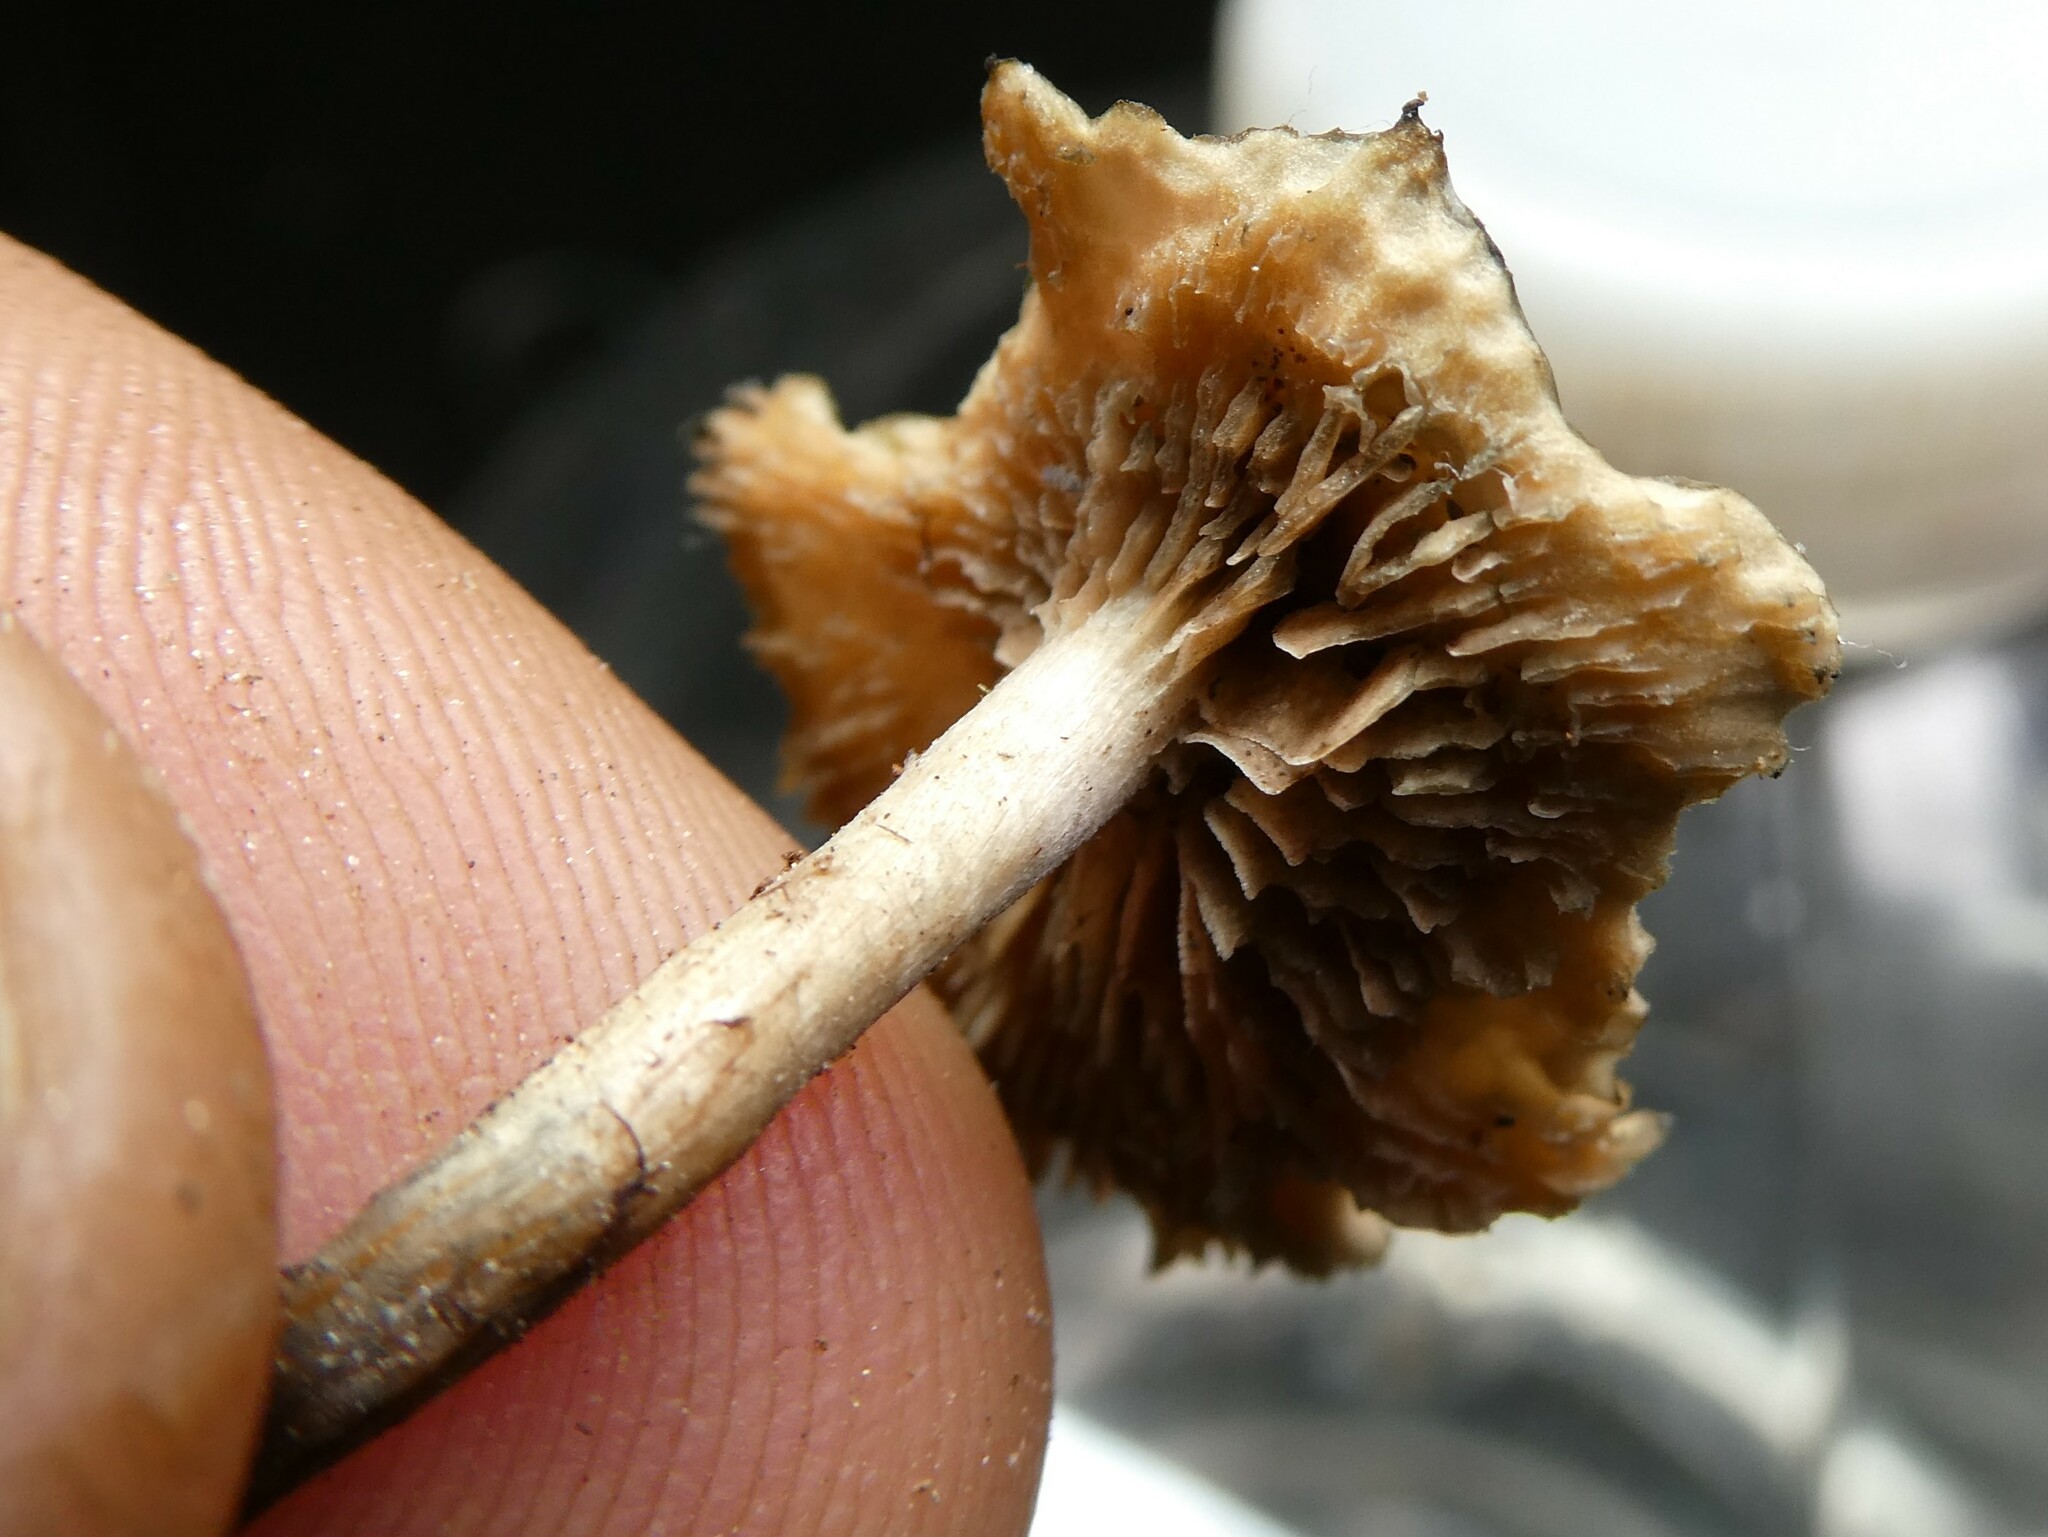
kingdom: Fungi
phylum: Basidiomycota
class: Agaricomycetes
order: Agaricales
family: Hymenogastraceae
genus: Psilocybe
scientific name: Psilocybe caerulipes
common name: Blue-foot
